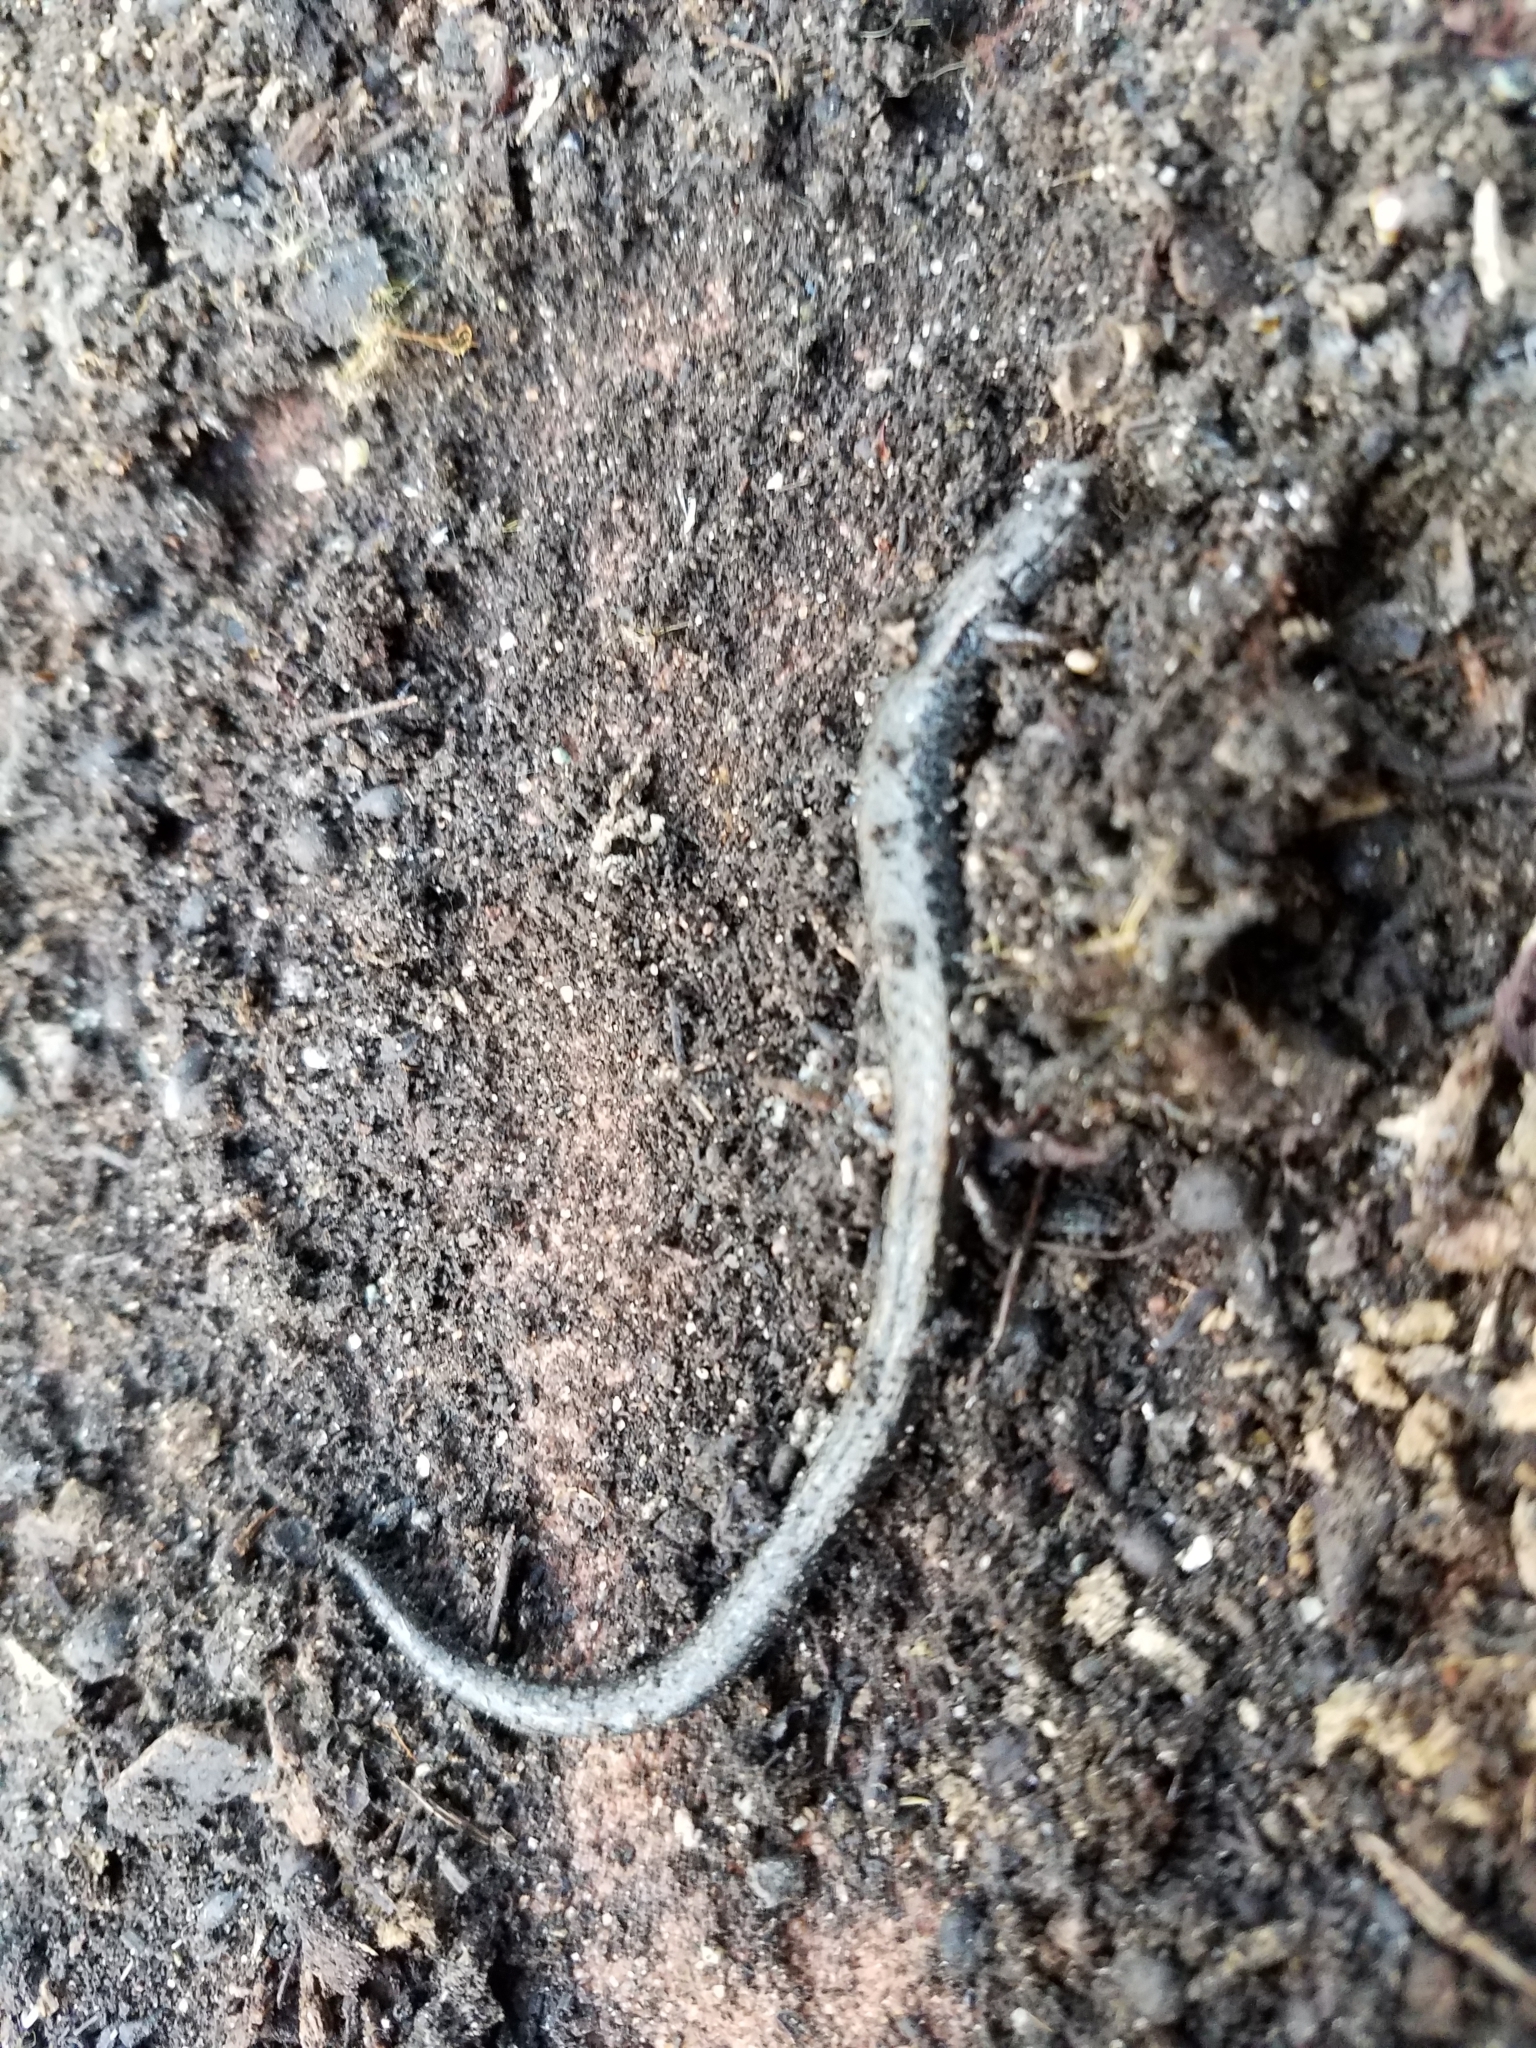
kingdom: Animalia
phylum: Chordata
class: Amphibia
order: Caudata
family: Plethodontidae
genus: Batrachoseps
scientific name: Batrachoseps attenuatus
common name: California slender salamander
